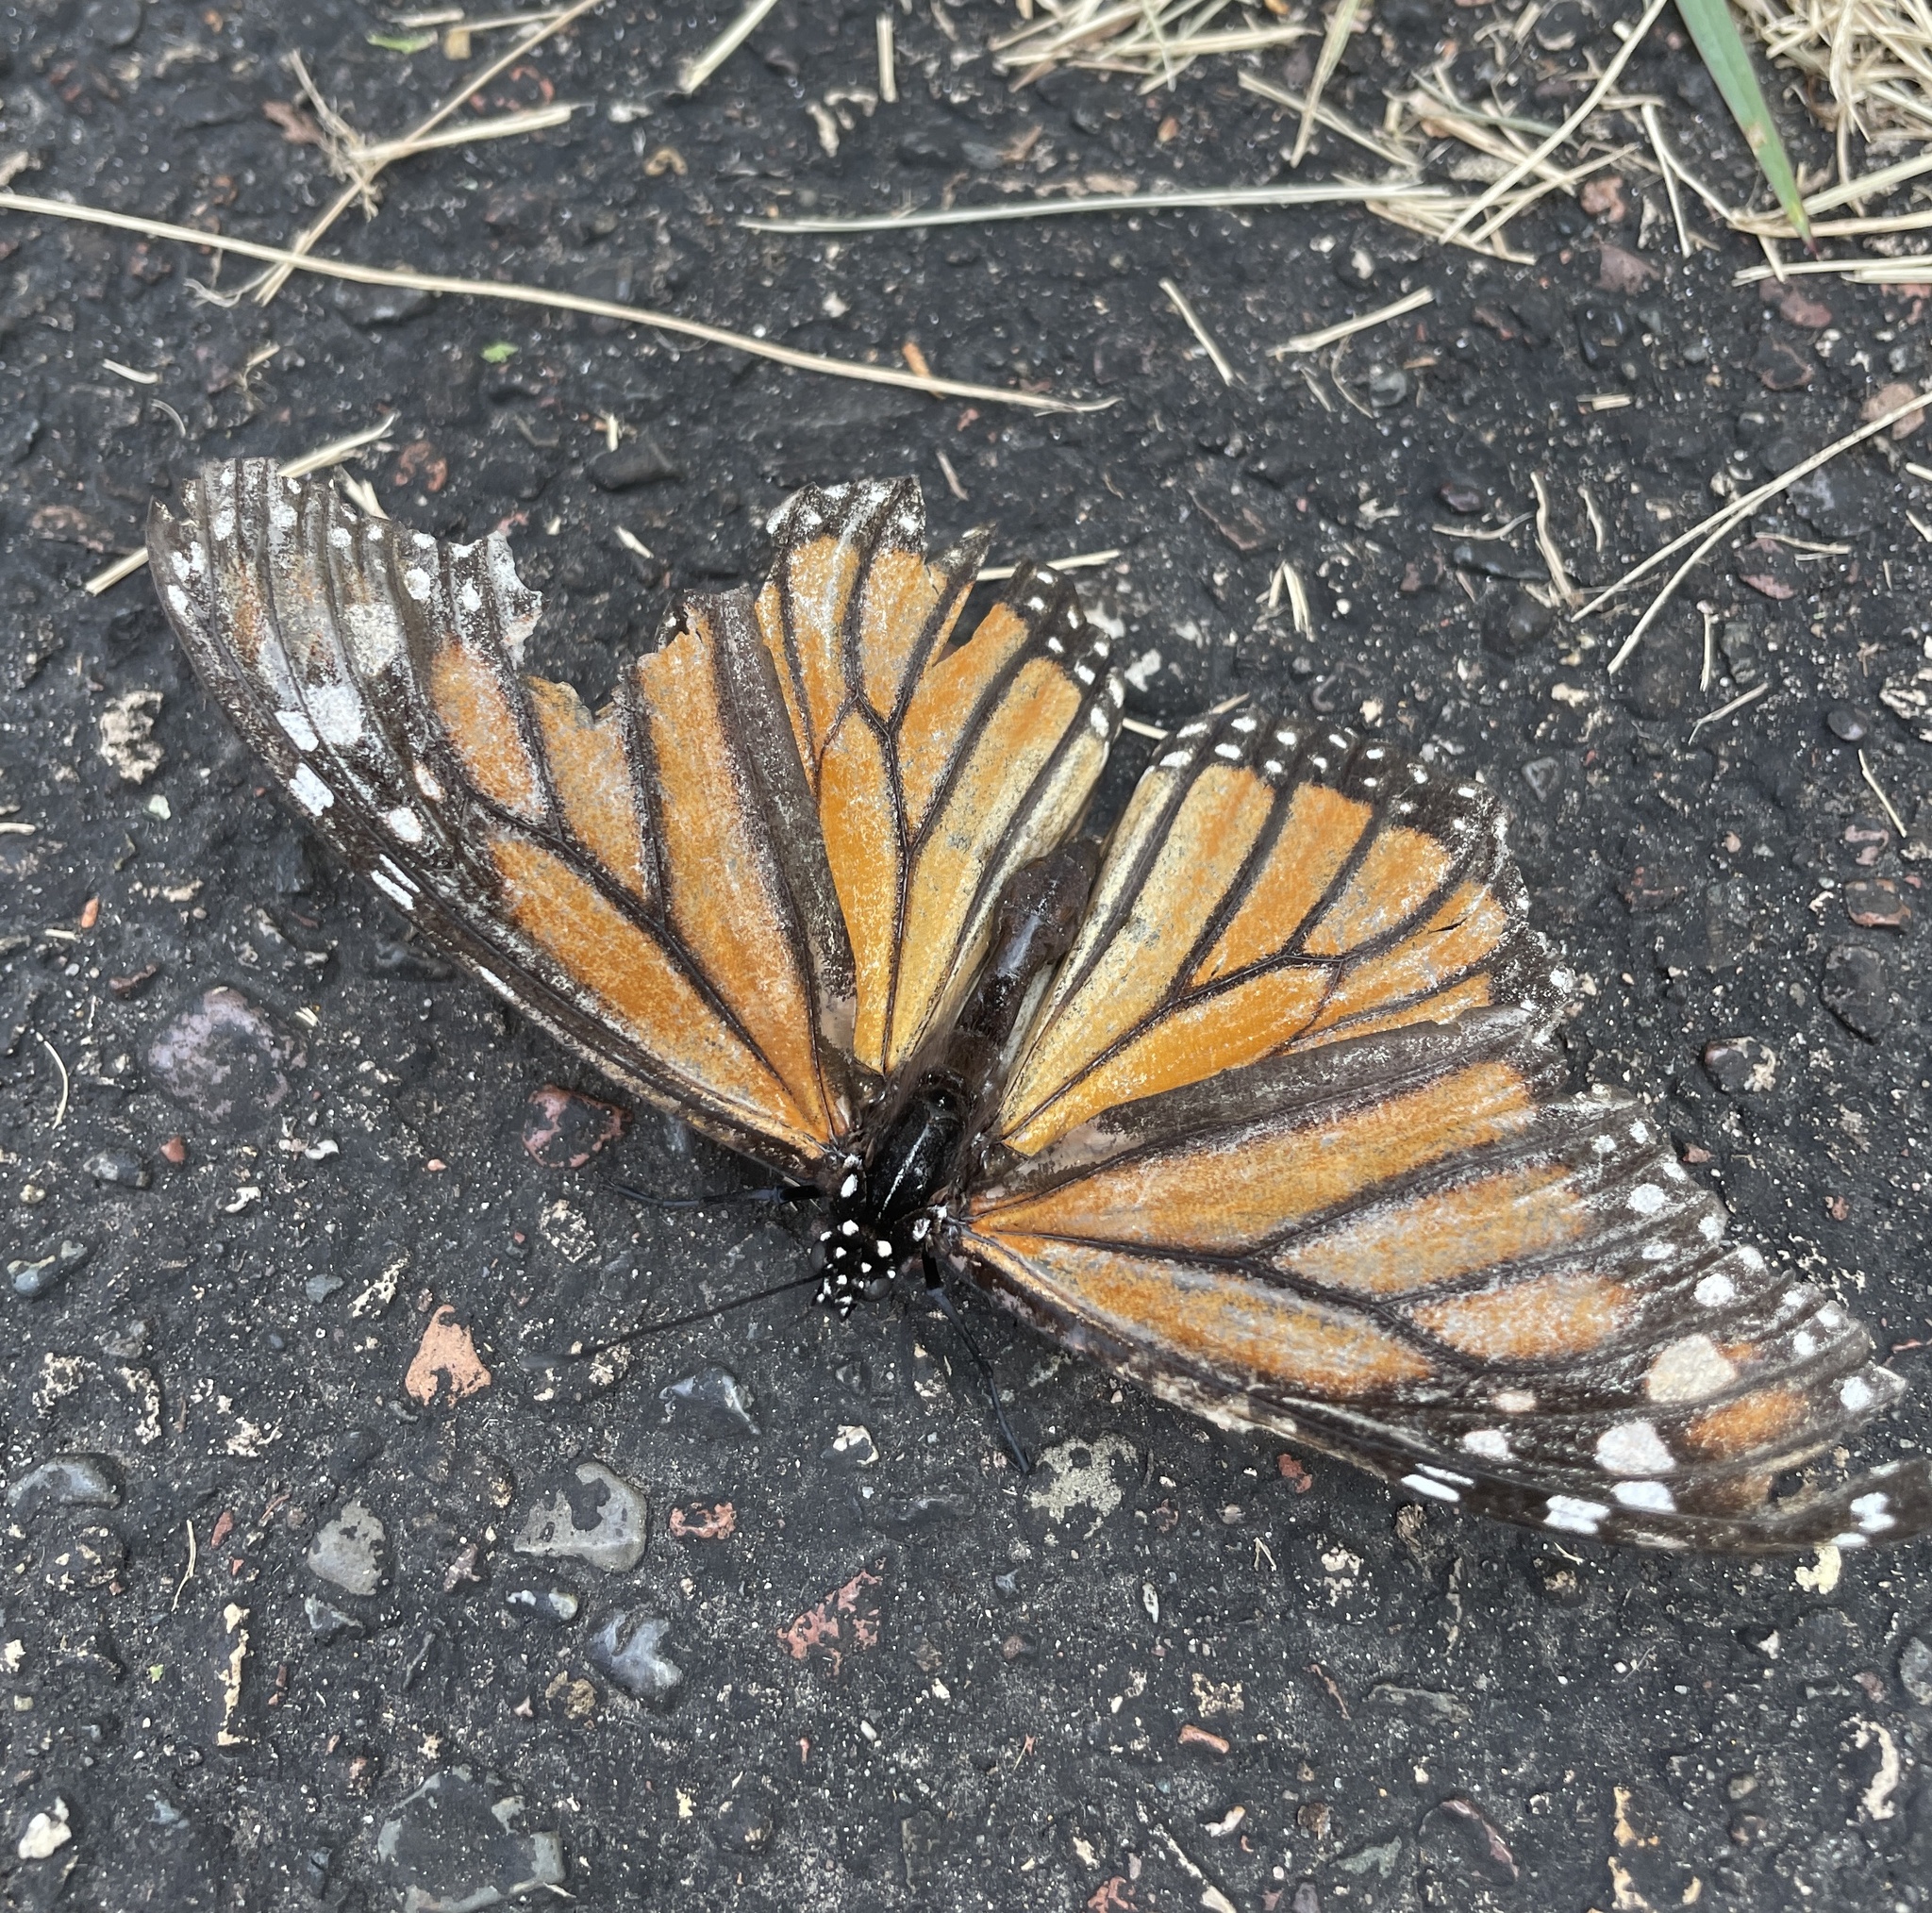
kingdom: Animalia
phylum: Arthropoda
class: Insecta
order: Lepidoptera
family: Nymphalidae
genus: Danaus
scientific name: Danaus plexippus
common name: Monarch
